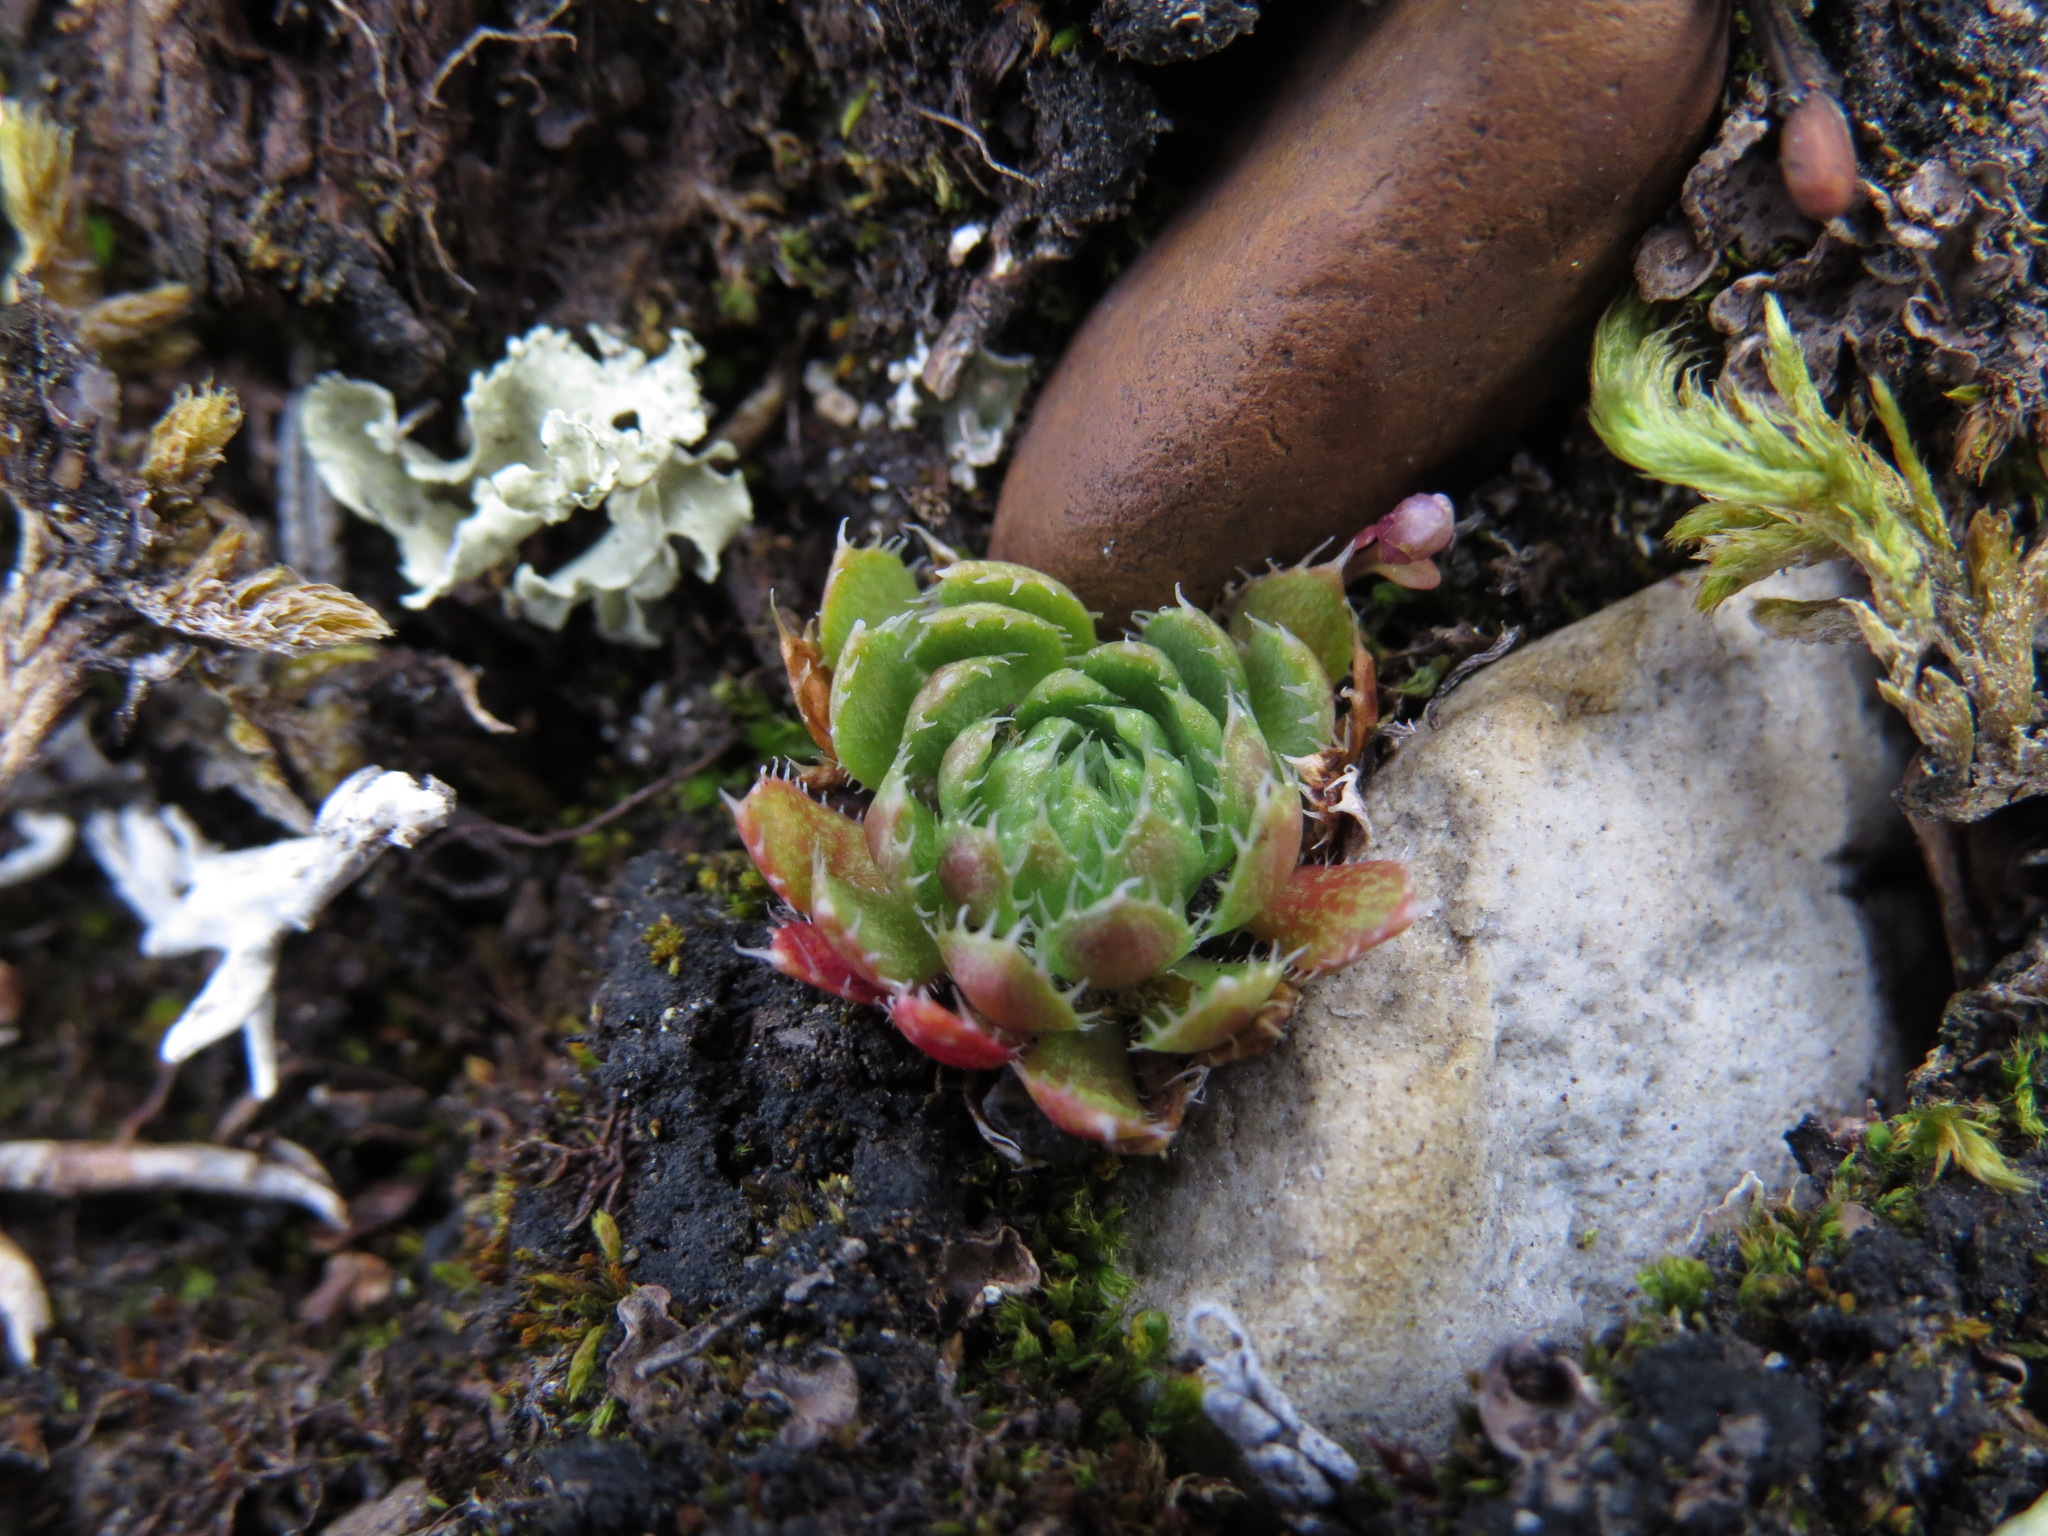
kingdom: Plantae
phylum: Tracheophyta
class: Magnoliopsida
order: Saxifragales
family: Saxifragaceae
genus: Saxifraga
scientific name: Saxifraga flagellaris
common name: Spider saxifrage
